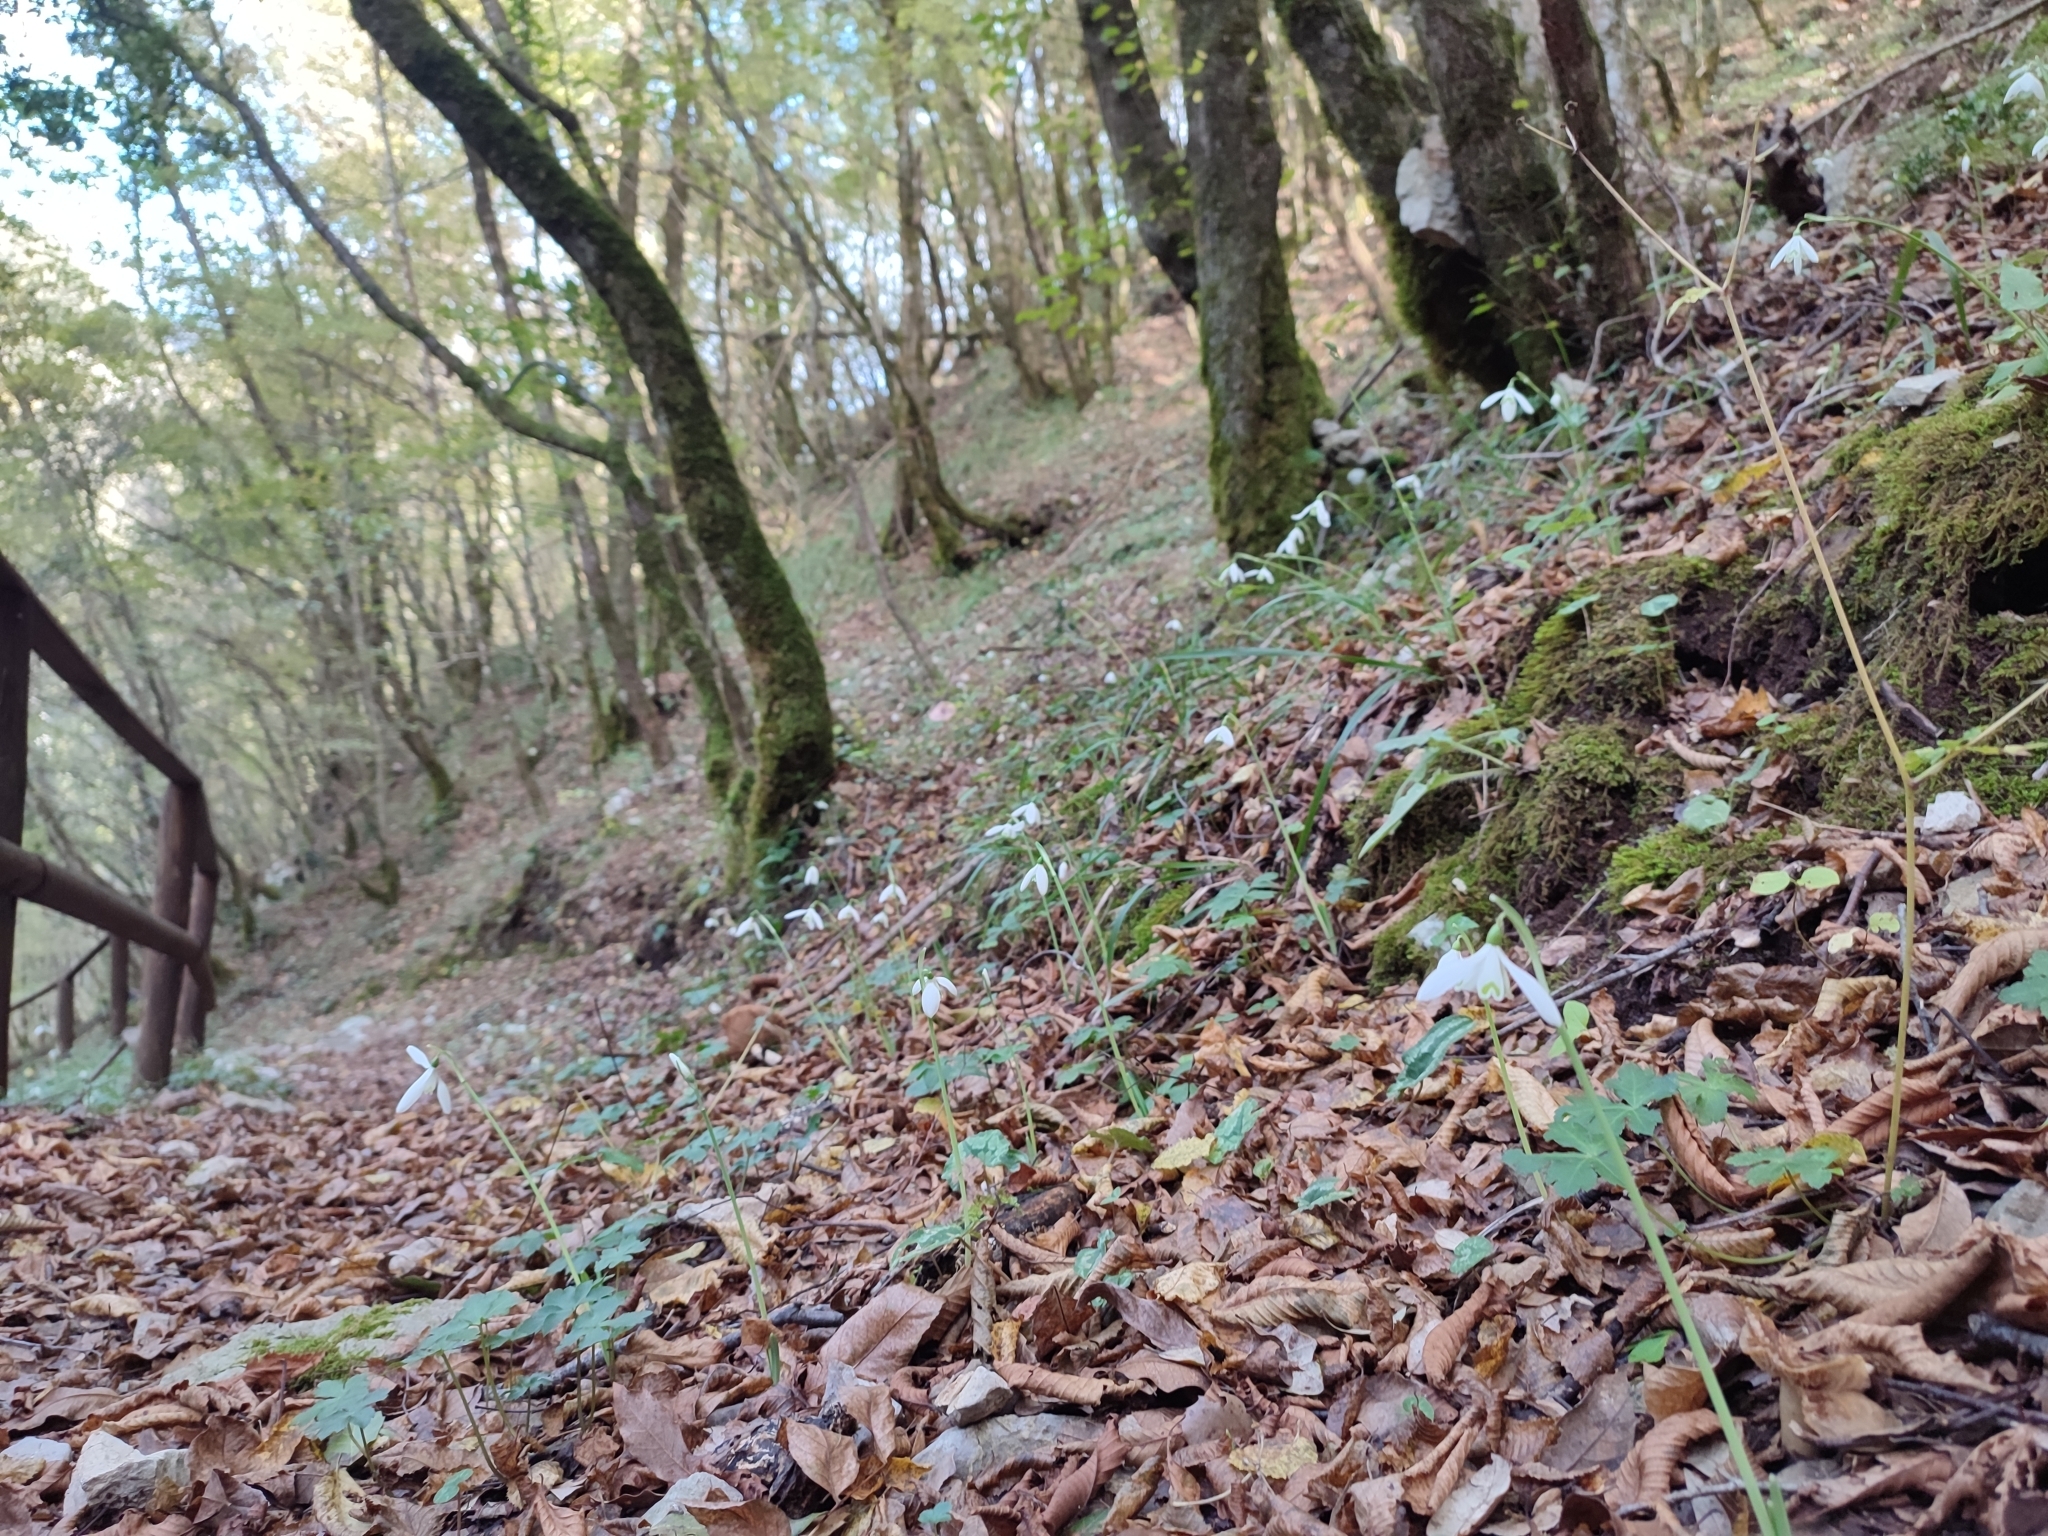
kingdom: Plantae
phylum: Tracheophyta
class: Liliopsida
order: Asparagales
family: Amaryllidaceae
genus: Galanthus
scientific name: Galanthus reginae-olgae
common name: Queen olga's snowdrop
